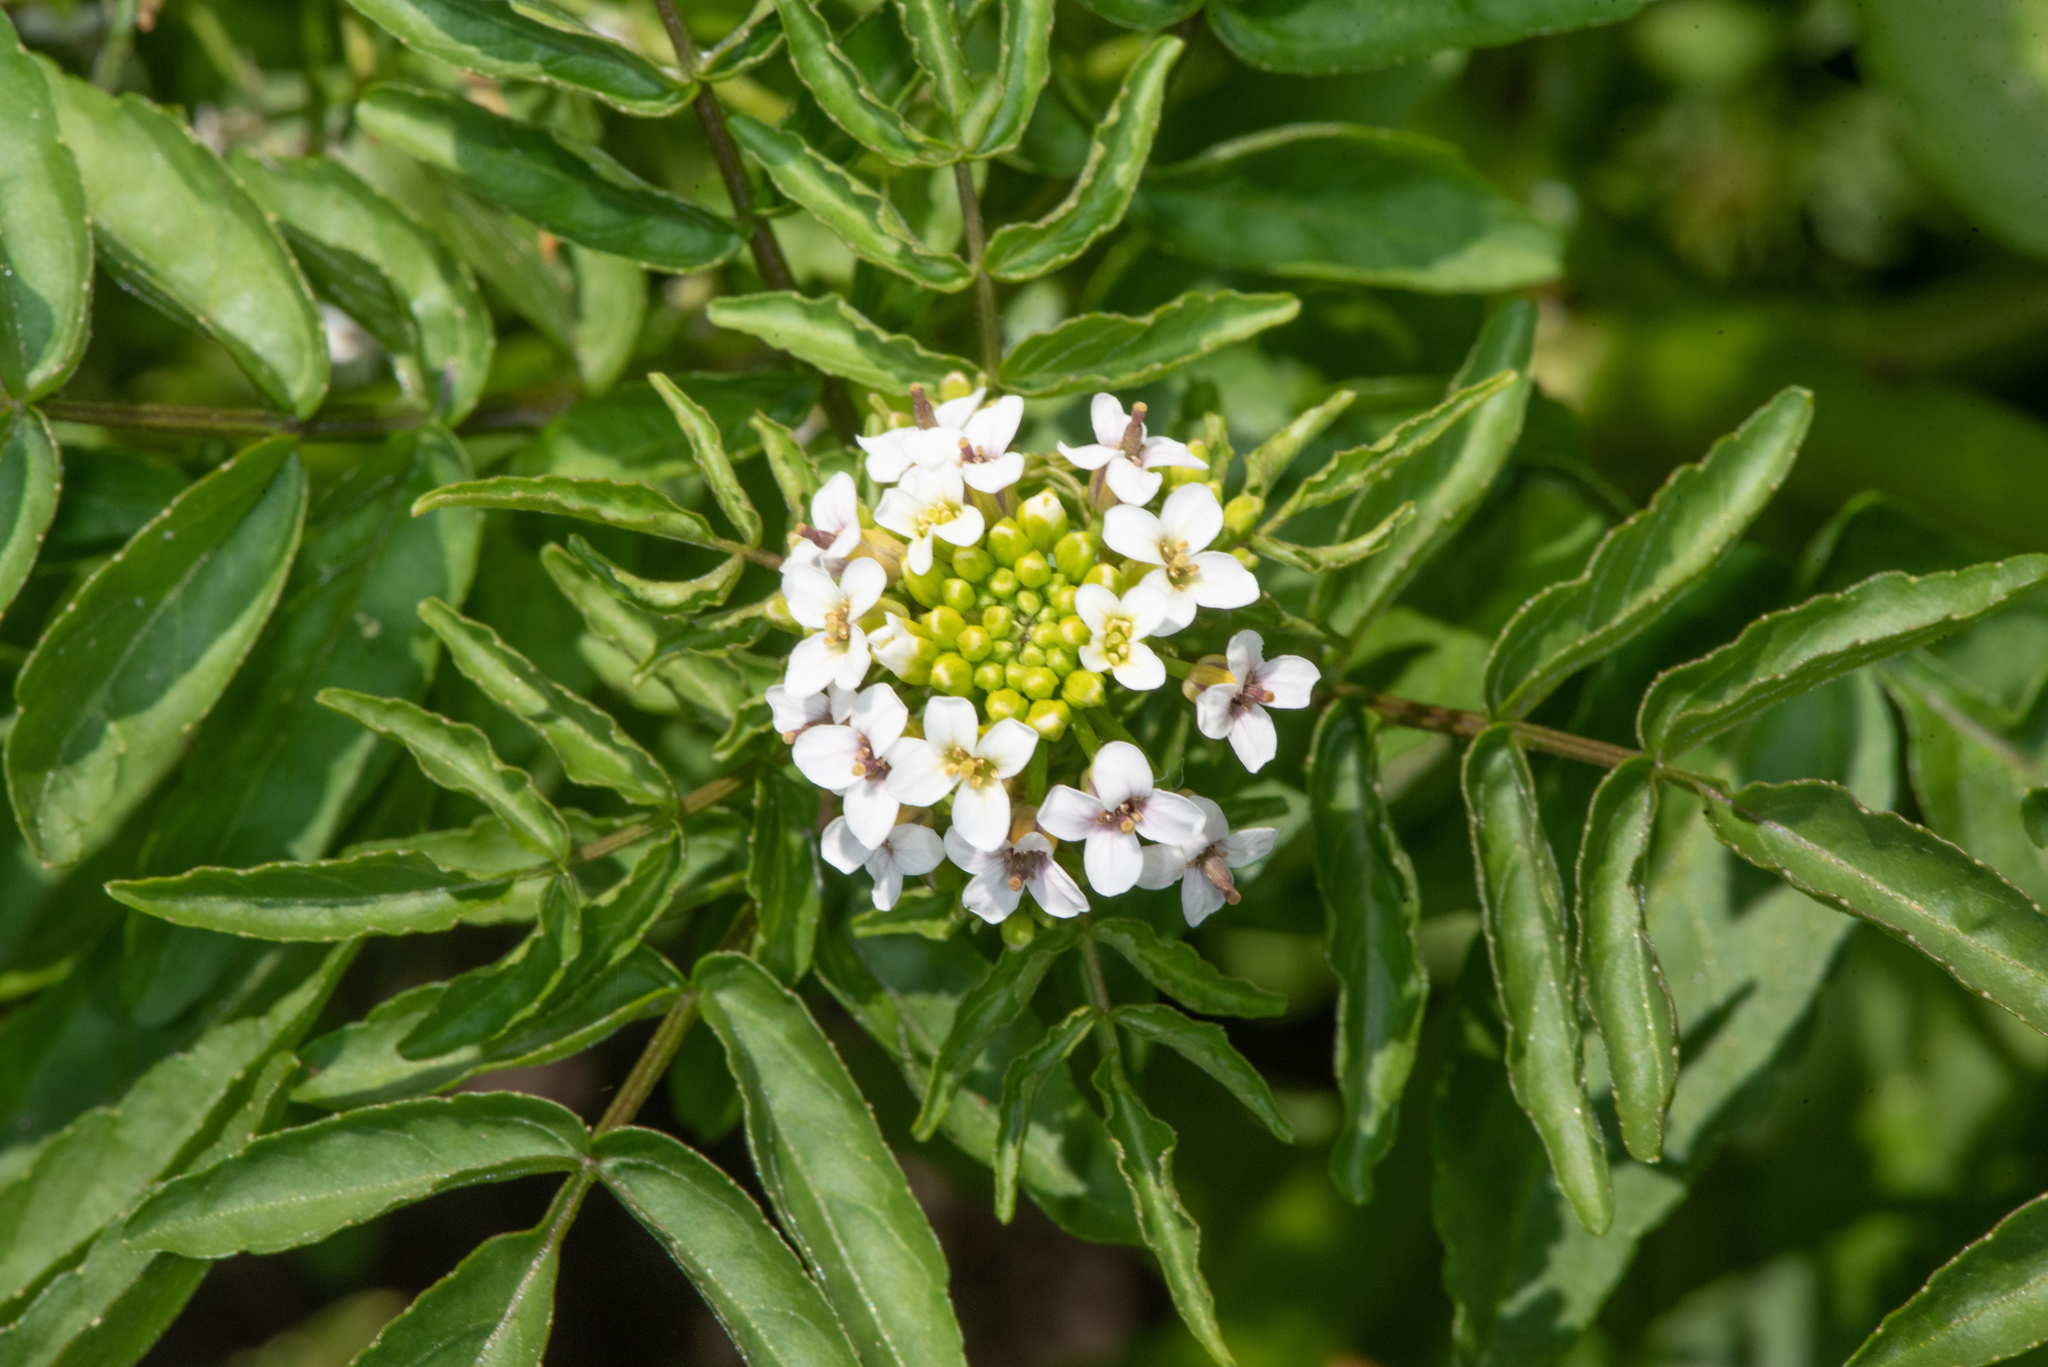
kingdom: Plantae
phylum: Tracheophyta
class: Magnoliopsida
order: Brassicales
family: Brassicaceae
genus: Nasturtium
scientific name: Nasturtium officinale
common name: Watercress
